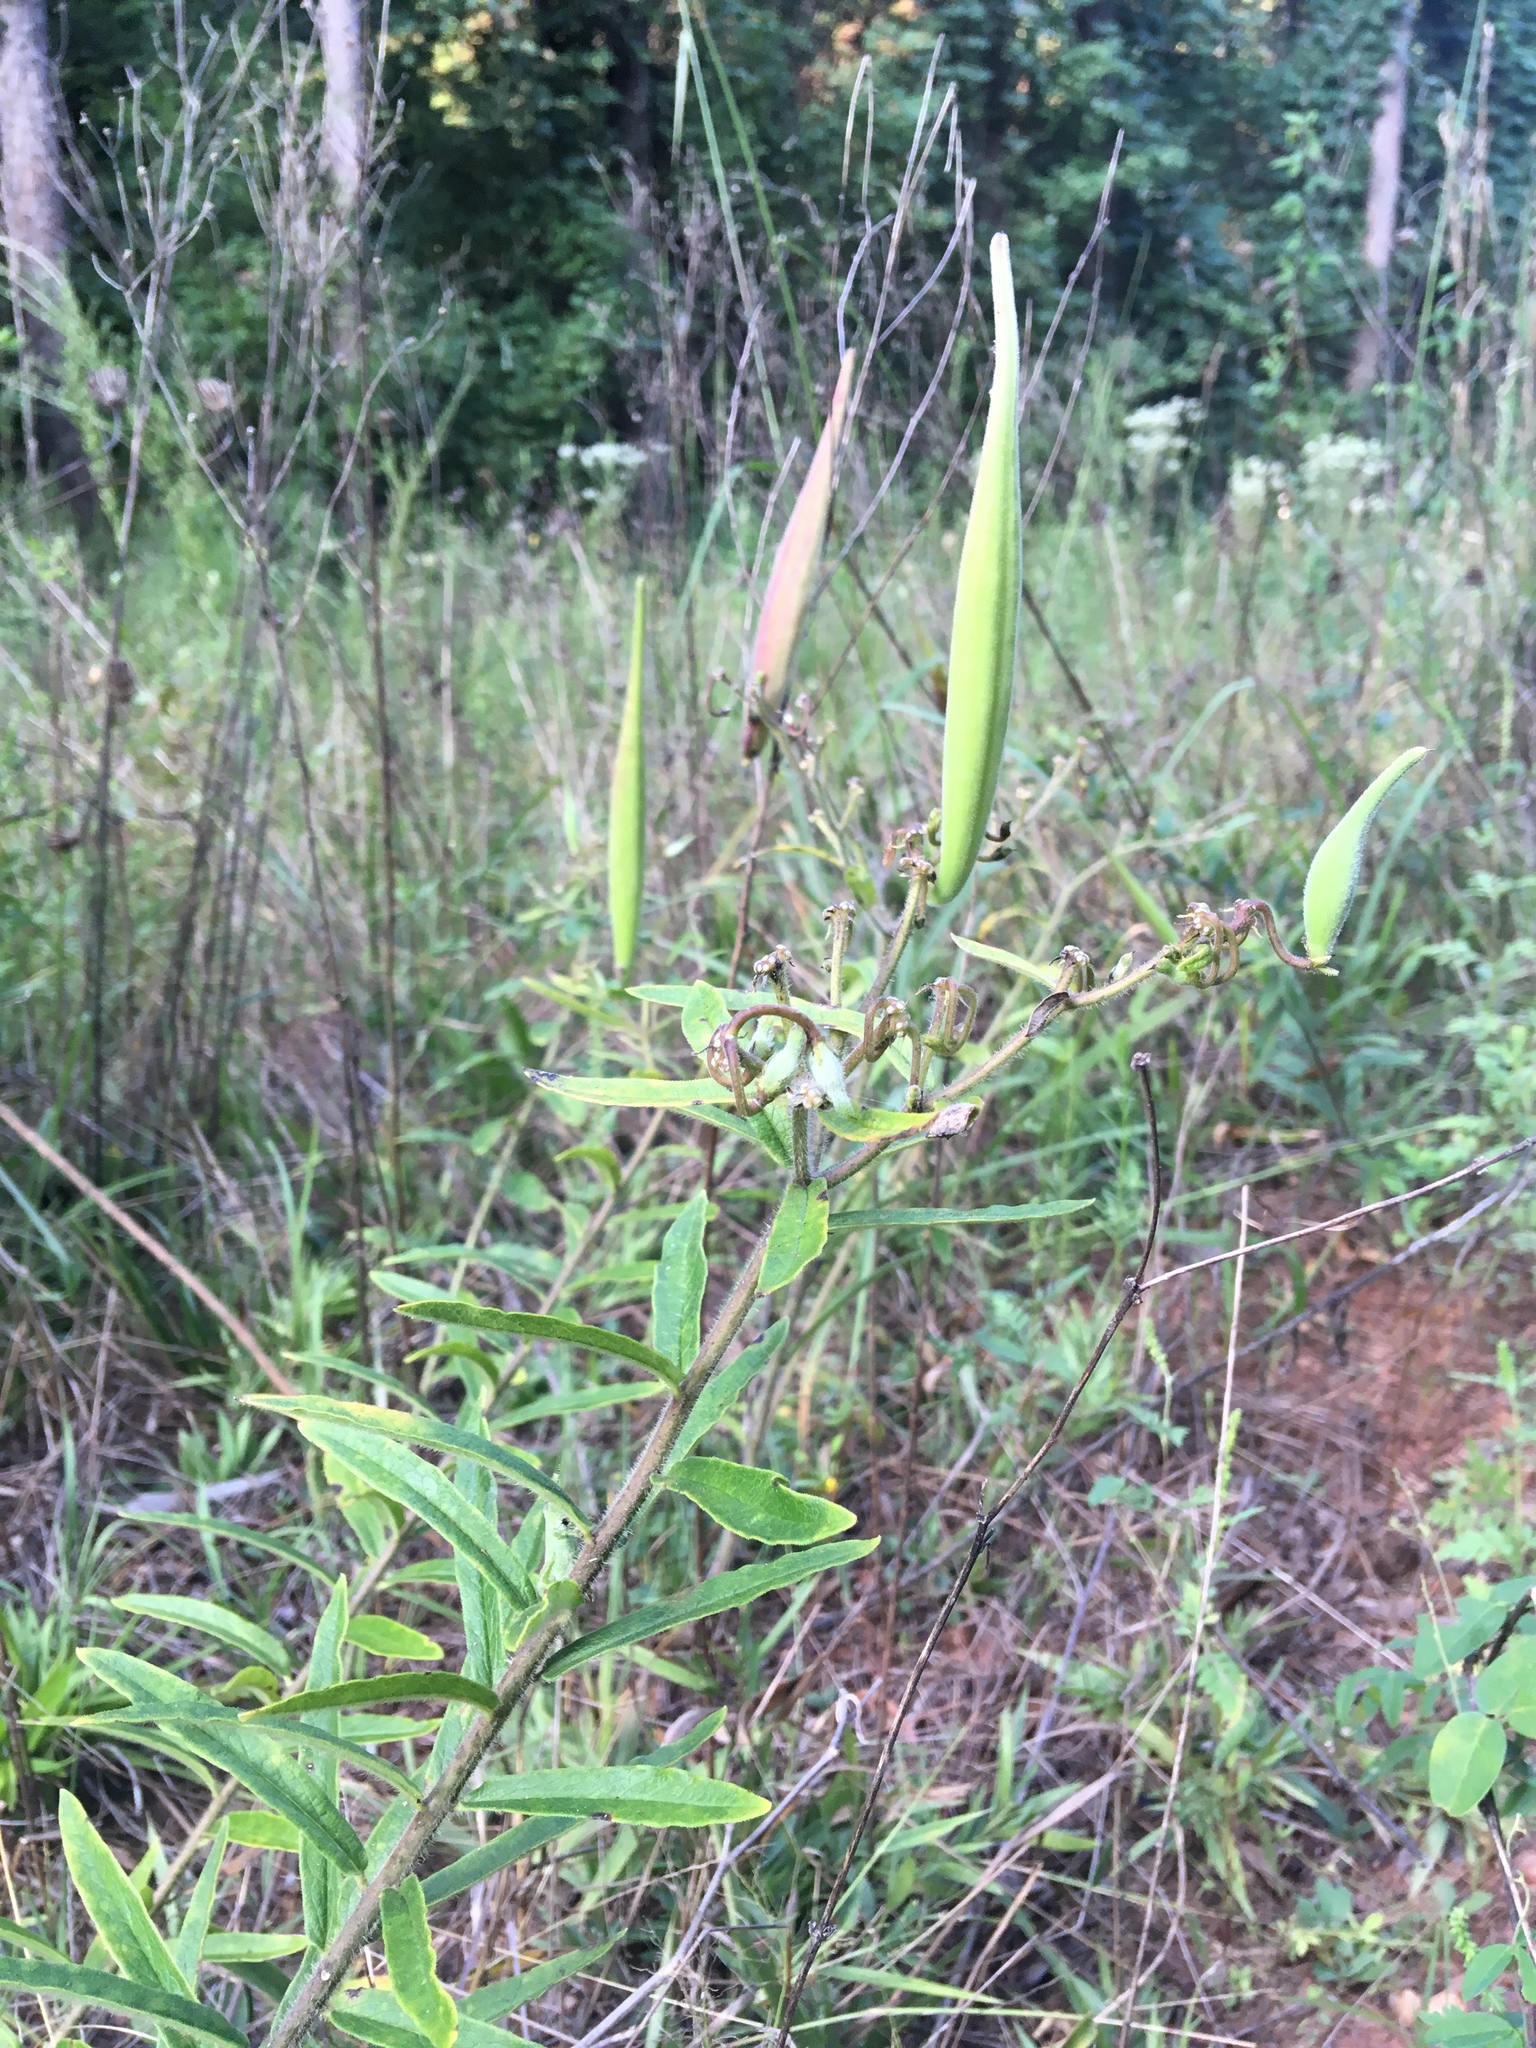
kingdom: Plantae
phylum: Tracheophyta
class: Magnoliopsida
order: Gentianales
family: Apocynaceae
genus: Asclepias
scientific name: Asclepias tuberosa
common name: Butterfly milkweed
